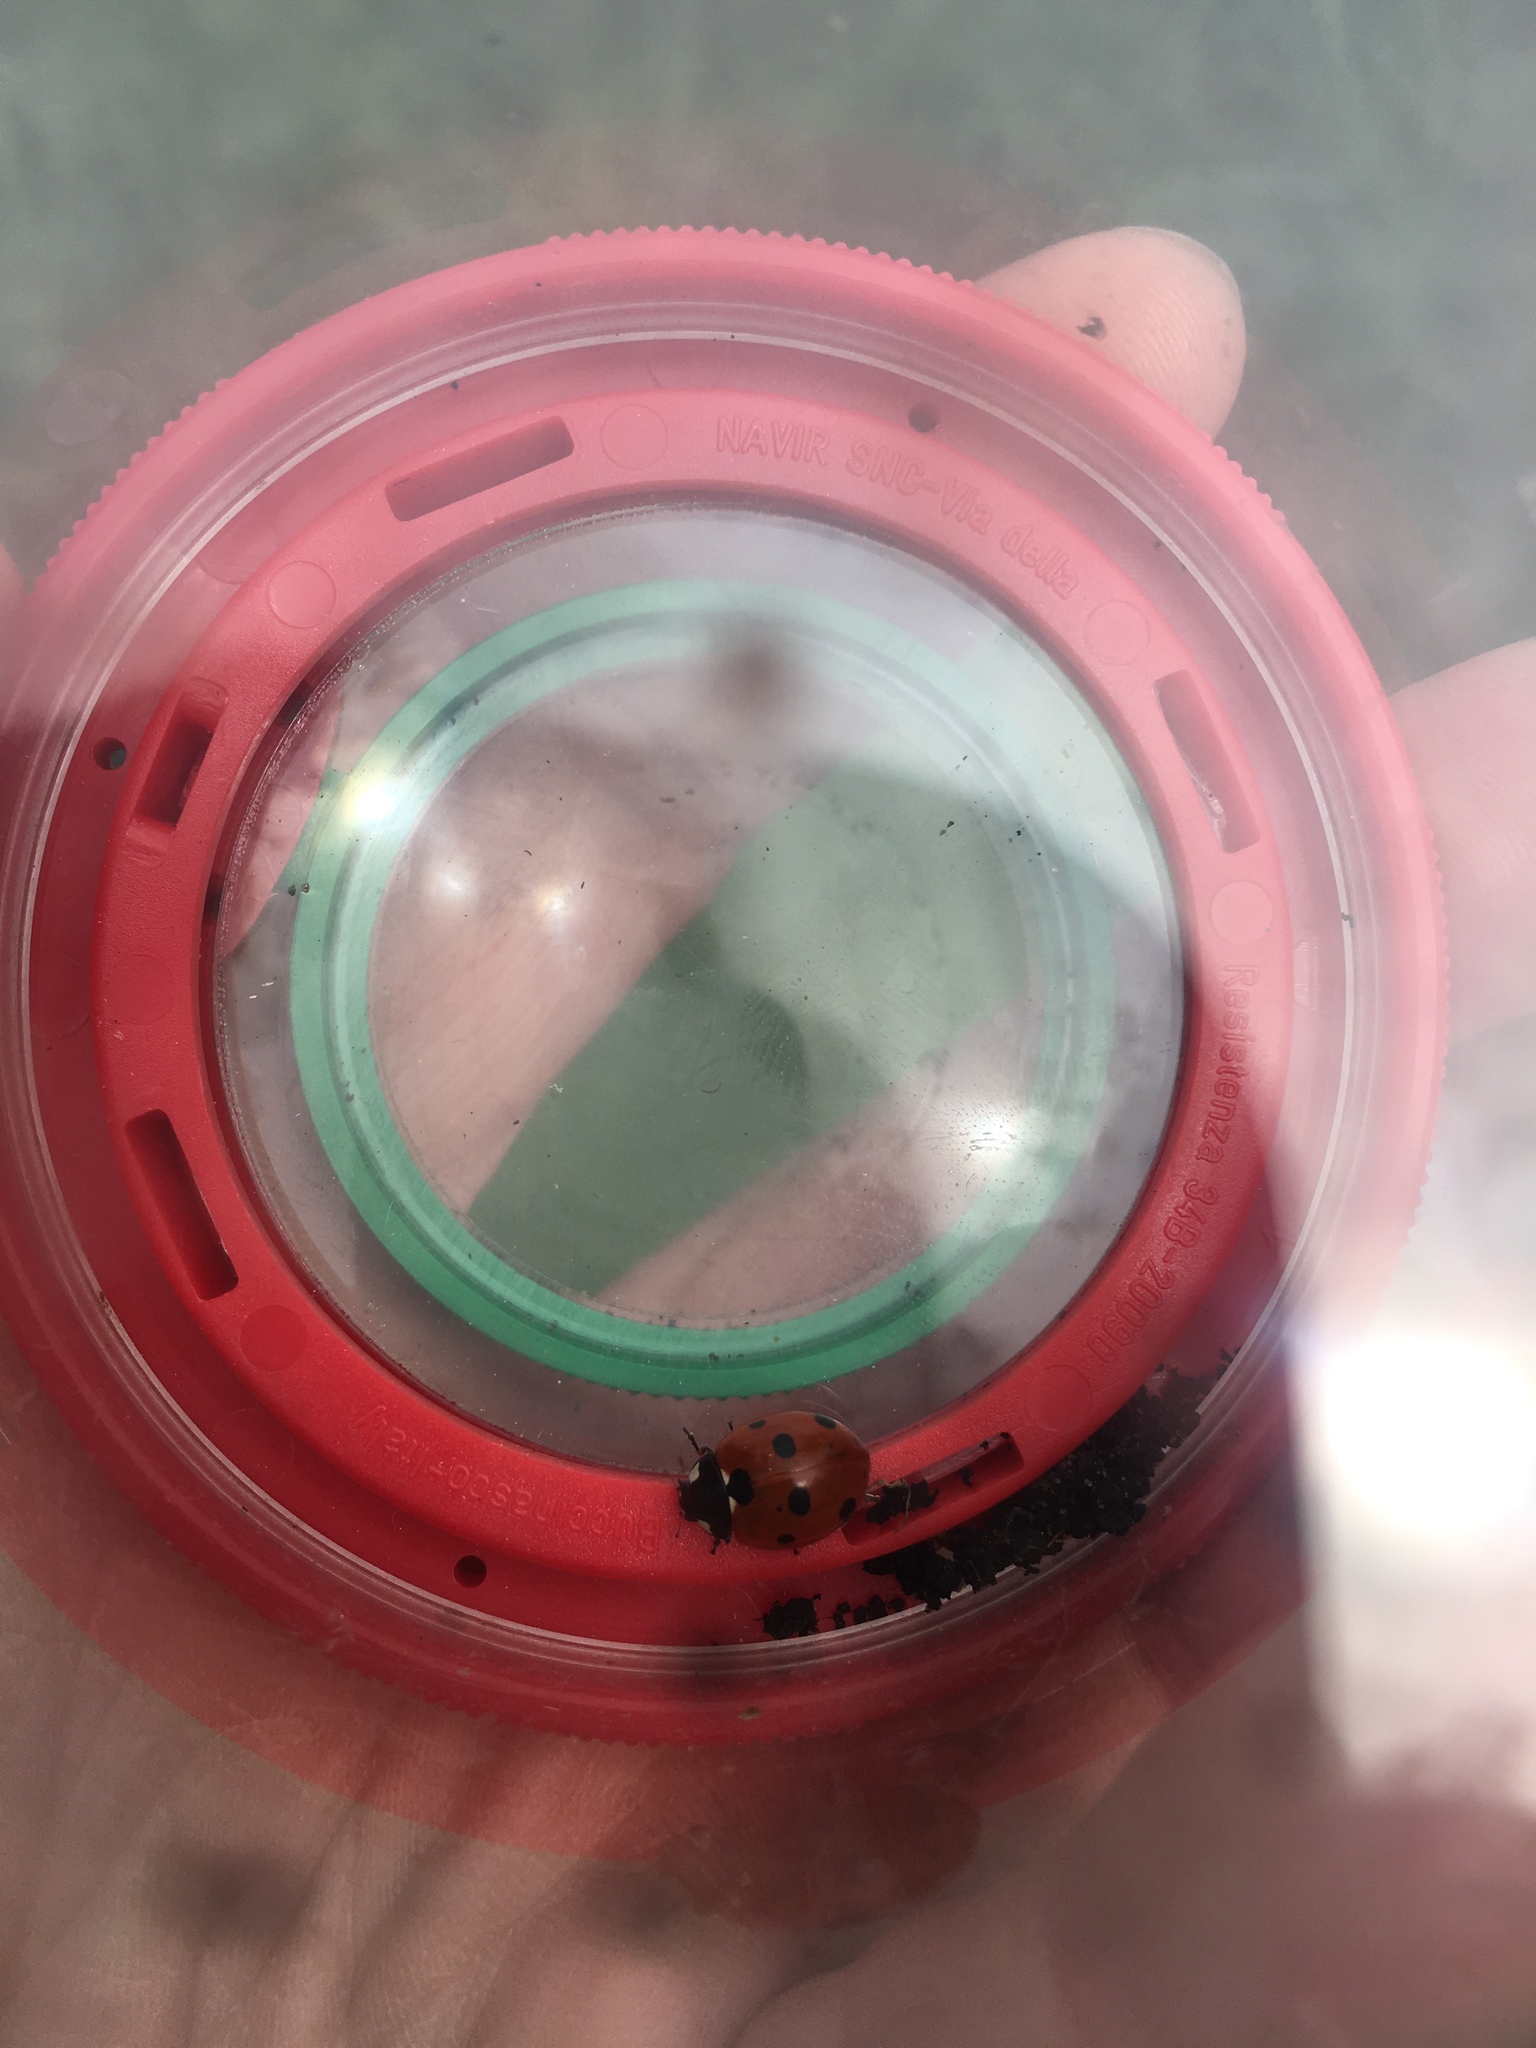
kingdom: Animalia
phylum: Arthropoda
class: Insecta
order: Coleoptera
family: Coccinellidae
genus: Coccinella
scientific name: Coccinella septempunctata
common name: Sevenspotted lady beetle
